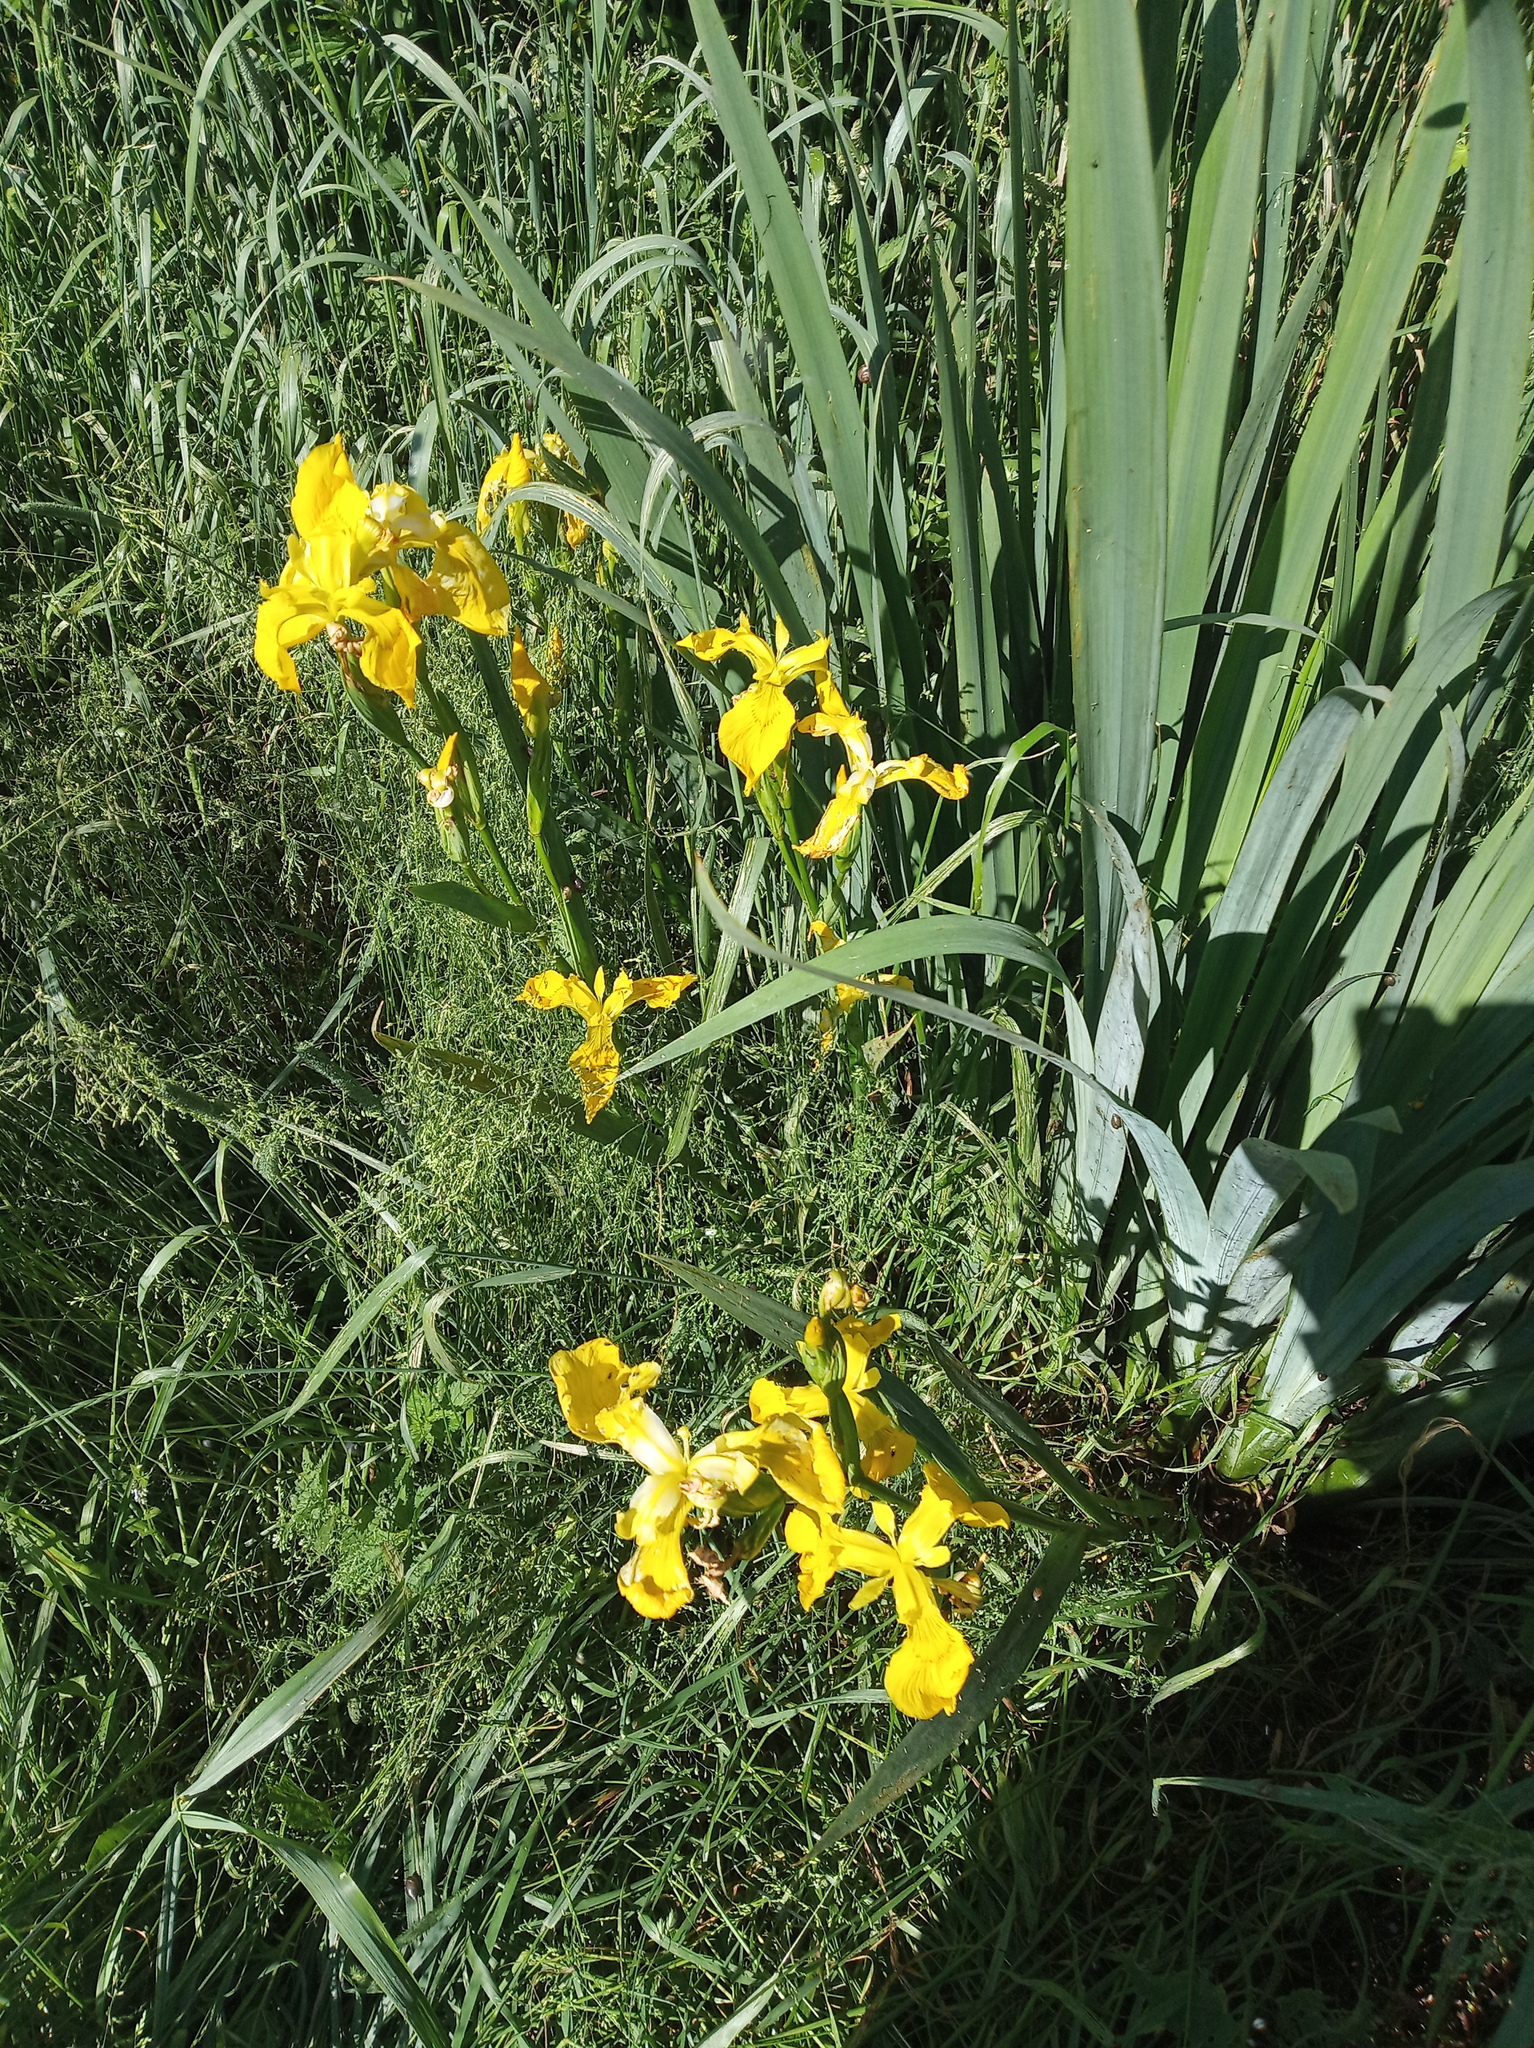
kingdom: Plantae
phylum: Tracheophyta
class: Liliopsida
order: Asparagales
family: Iridaceae
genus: Iris
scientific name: Iris pseudacorus
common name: Yellow flag
